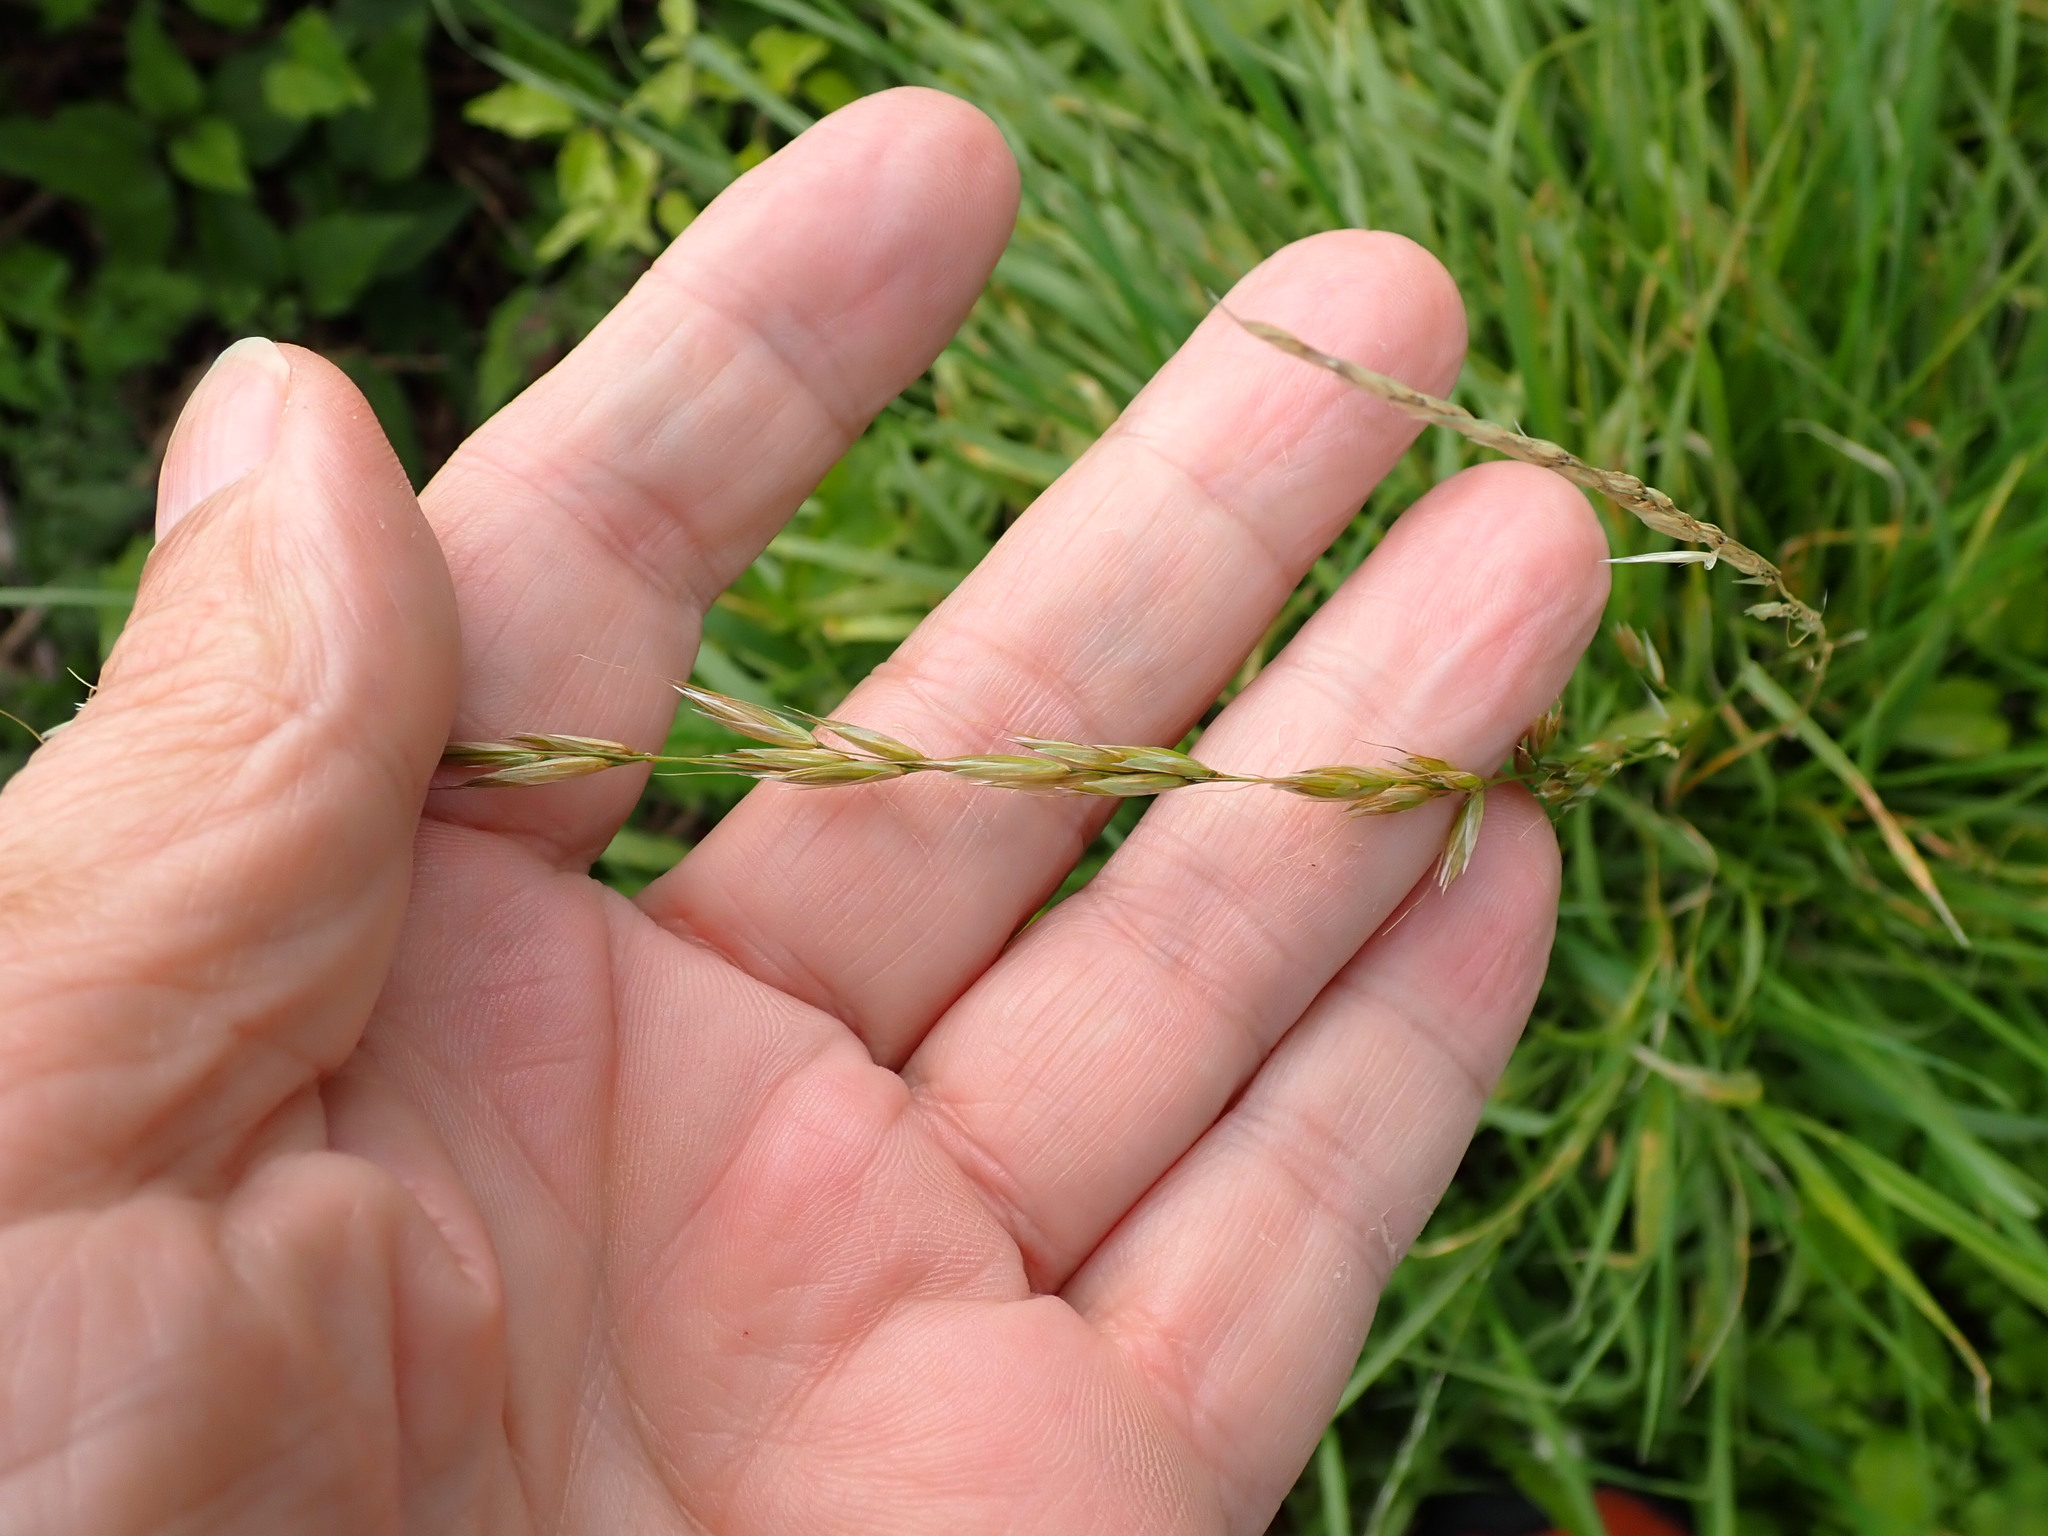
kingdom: Plantae
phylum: Tracheophyta
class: Liliopsida
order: Poales
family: Poaceae
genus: Arrhenatherum
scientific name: Arrhenatherum elatius
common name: Tall oatgrass
